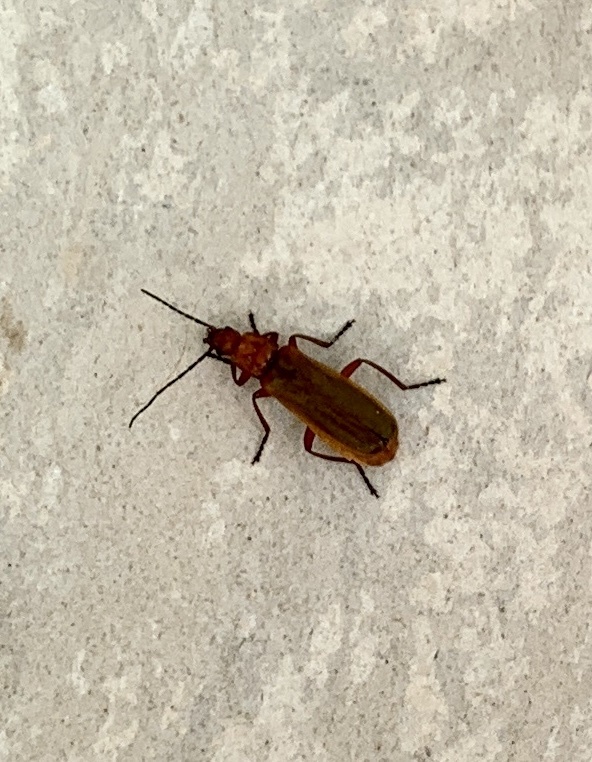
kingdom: Animalia
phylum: Arthropoda
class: Insecta
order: Coleoptera
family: Cantharidae
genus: Rhagonycha
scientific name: Rhagonycha nigritarsis
